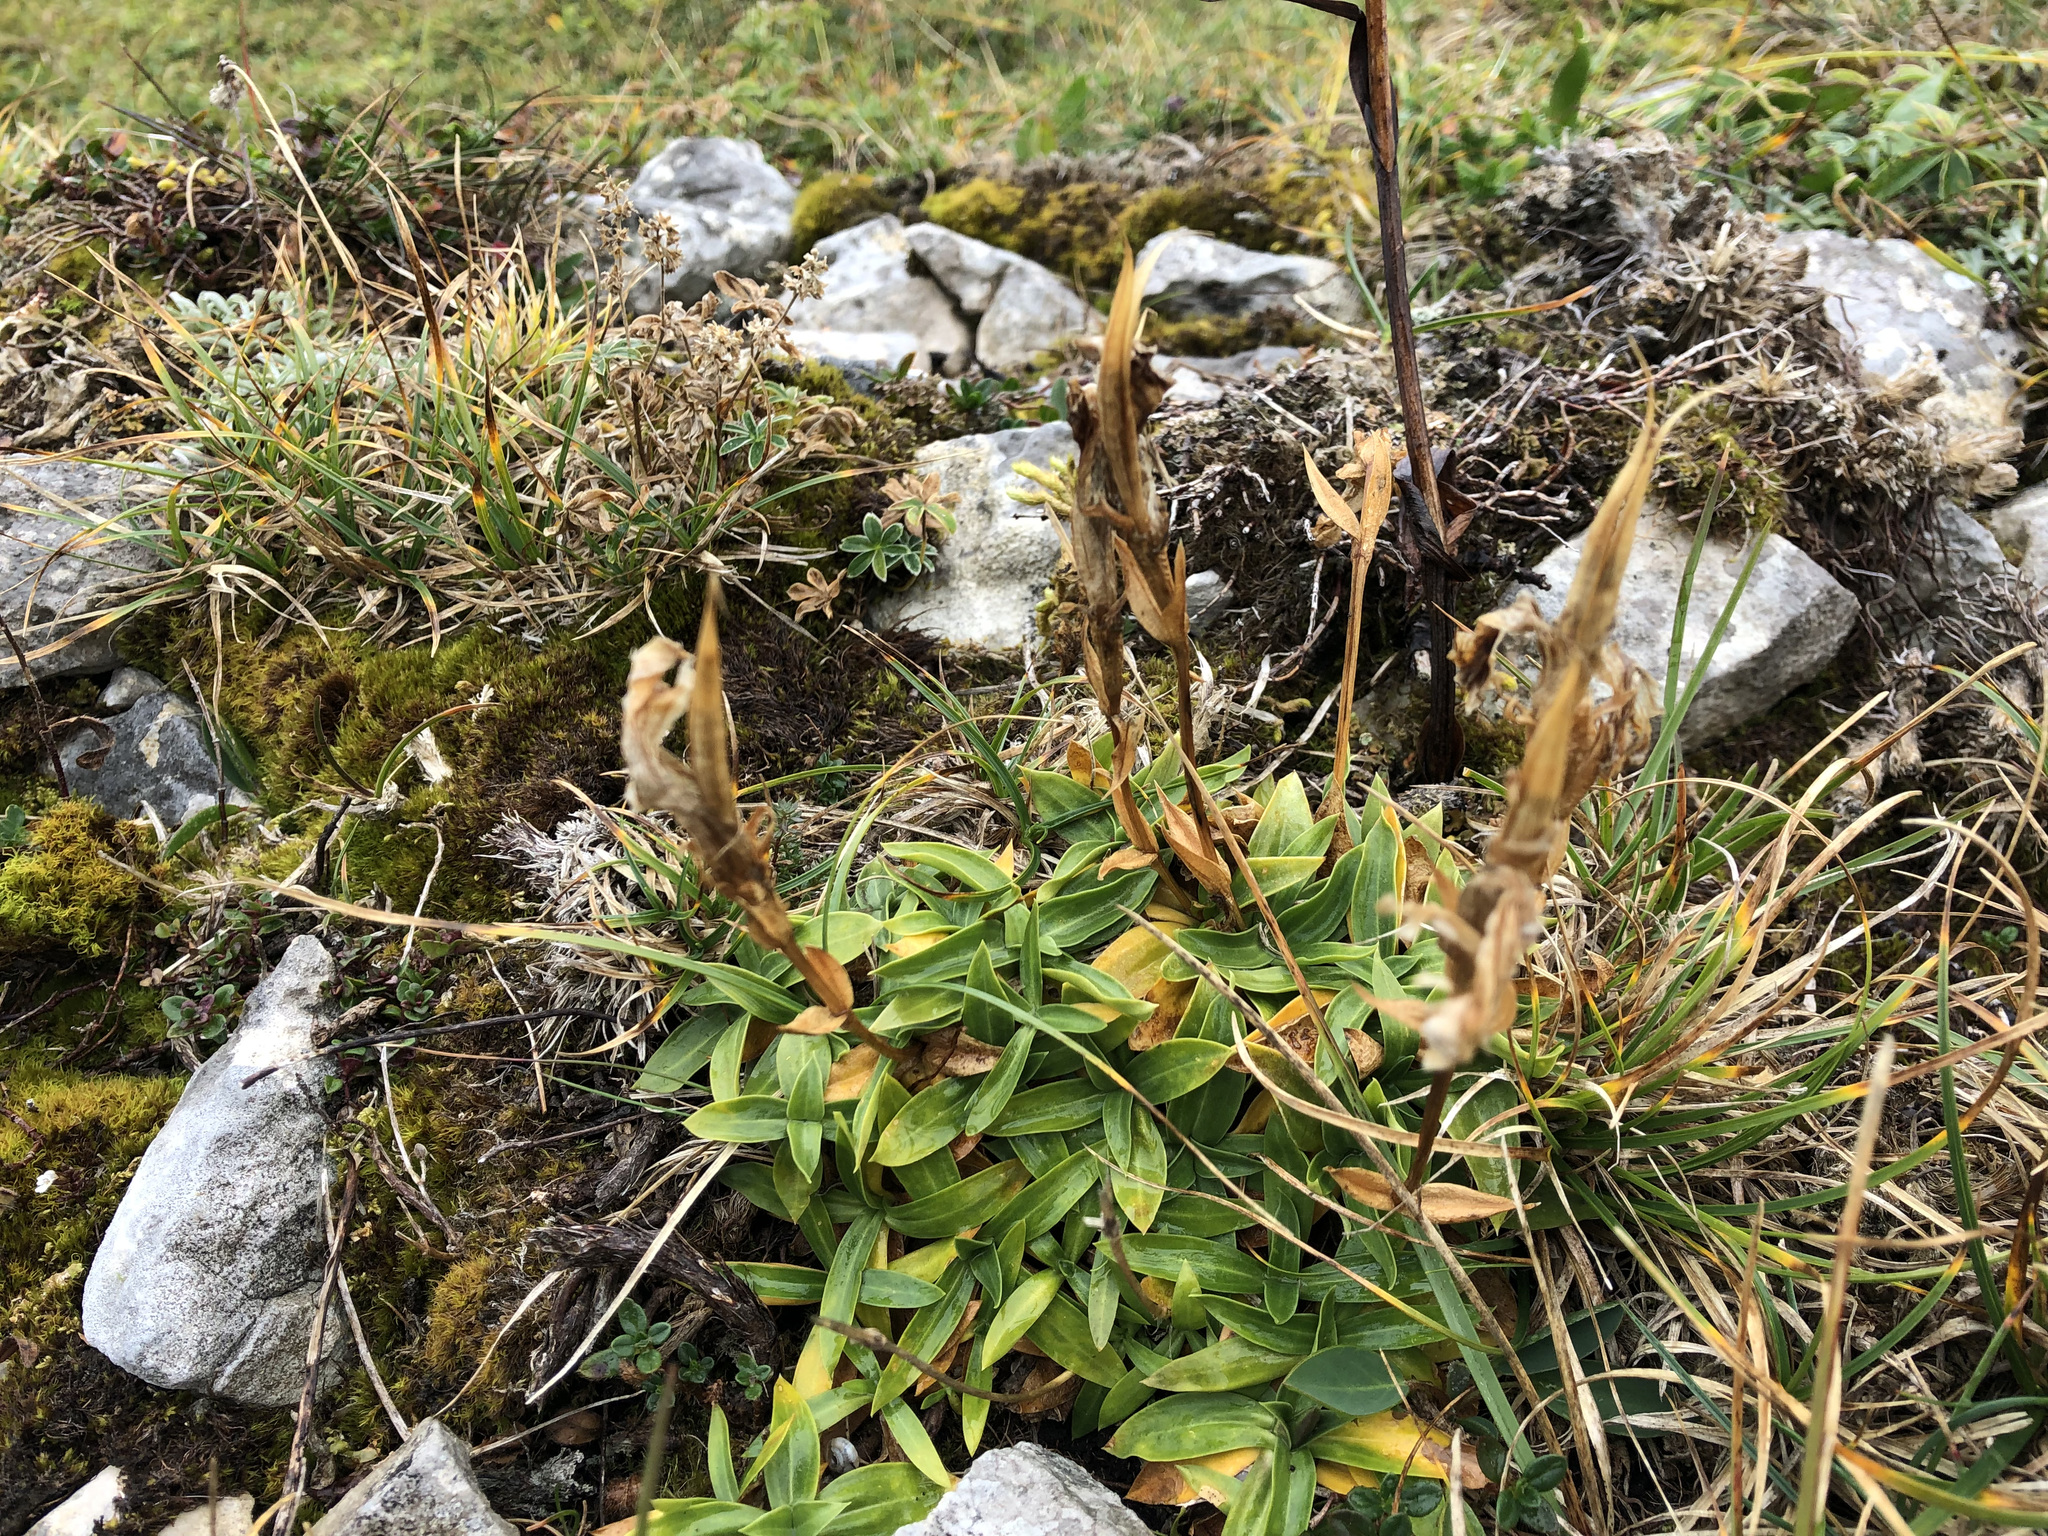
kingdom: Plantae
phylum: Tracheophyta
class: Magnoliopsida
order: Gentianales
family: Gentianaceae
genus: Gentiana
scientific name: Gentiana clusii
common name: Trumpet gentian
